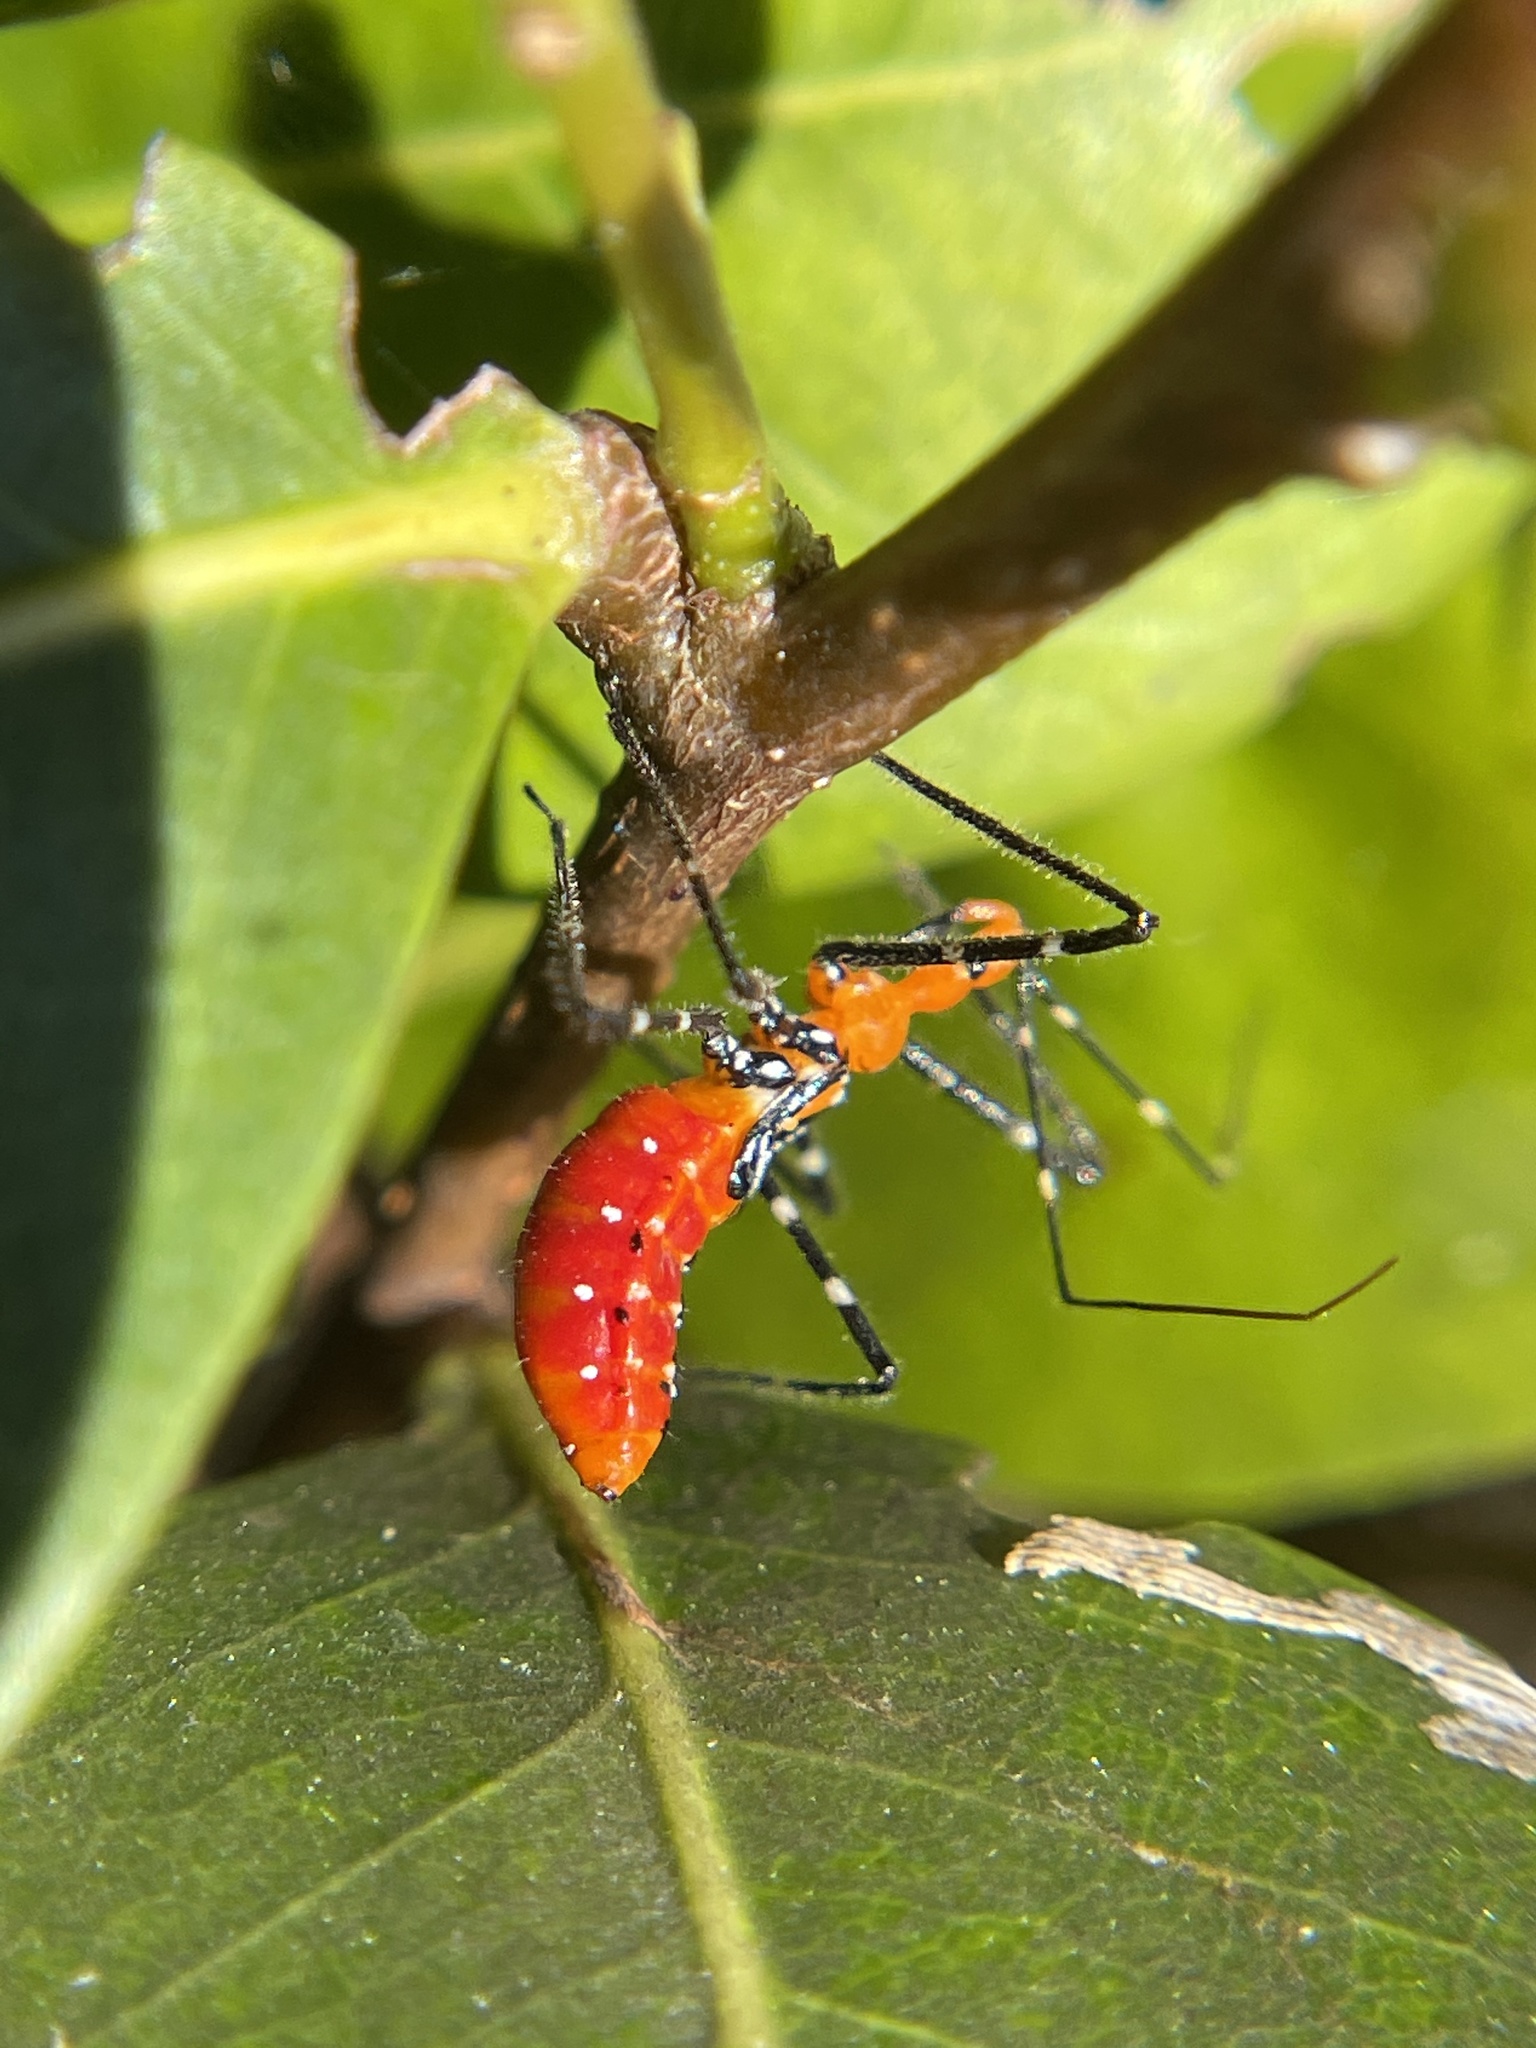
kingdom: Animalia
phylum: Arthropoda
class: Insecta
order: Hemiptera
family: Reduviidae
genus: Zelus
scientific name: Zelus longipes
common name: Milkweed assassin bug
